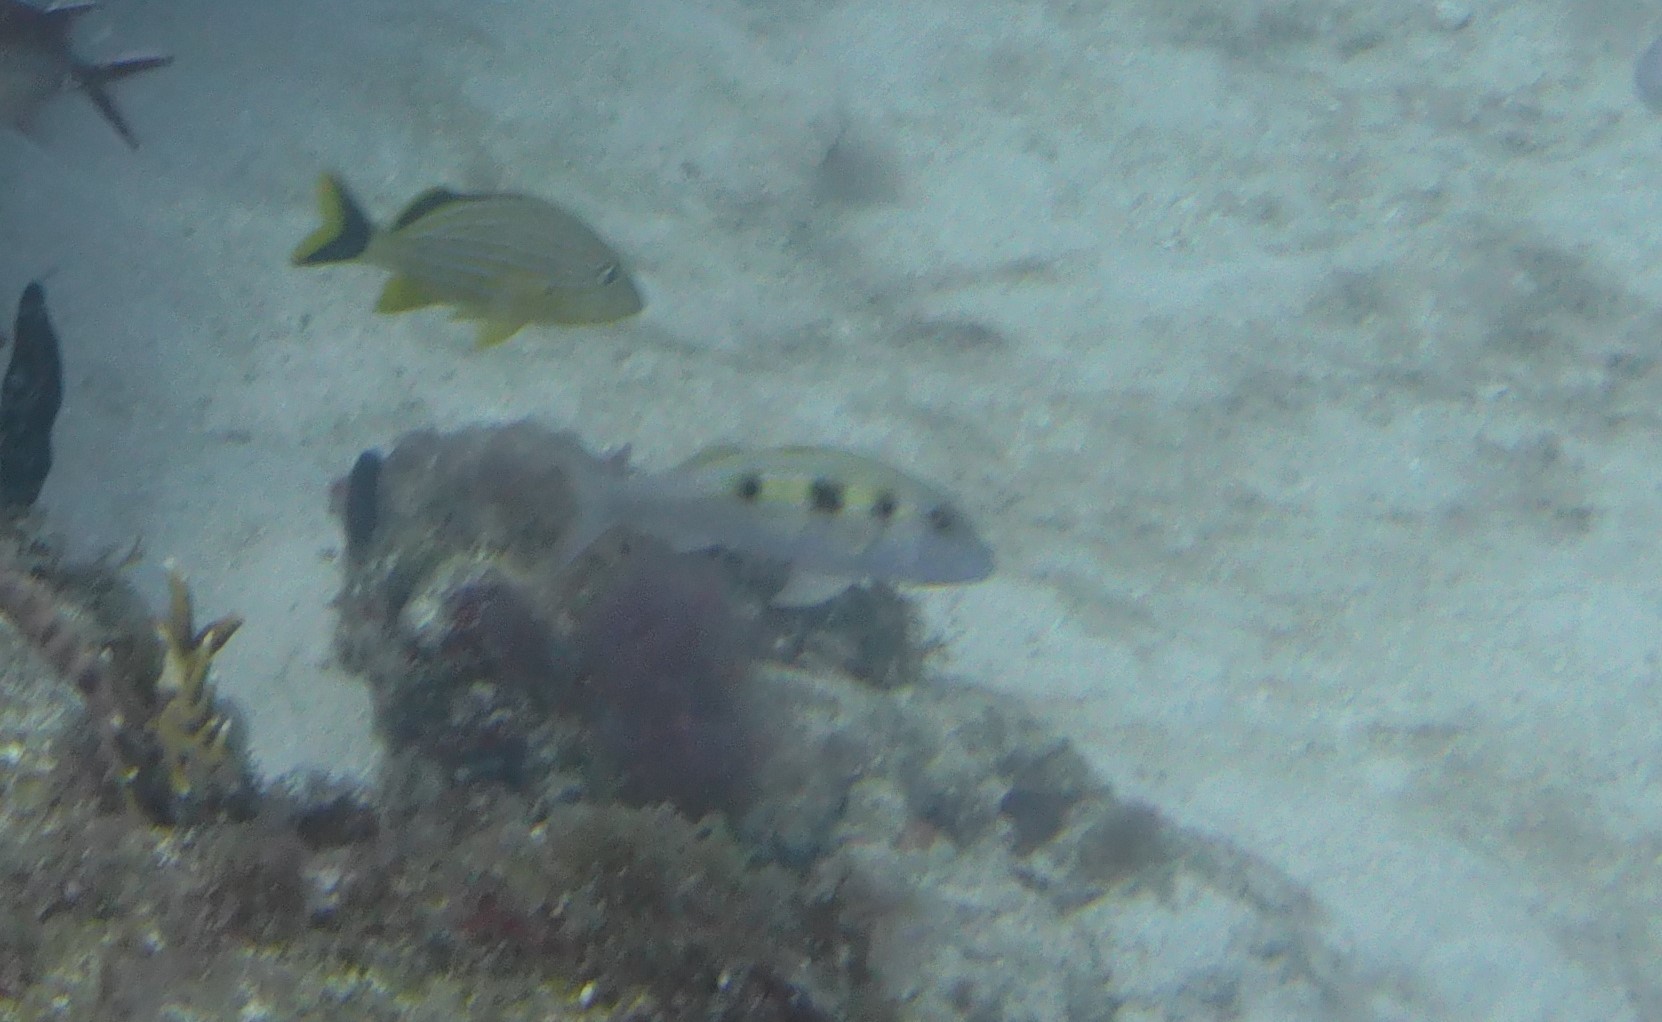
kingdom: Animalia
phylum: Chordata
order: Perciformes
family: Mullidae
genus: Pseudupeneus
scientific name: Pseudupeneus maculatus
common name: Spotted goatfish
